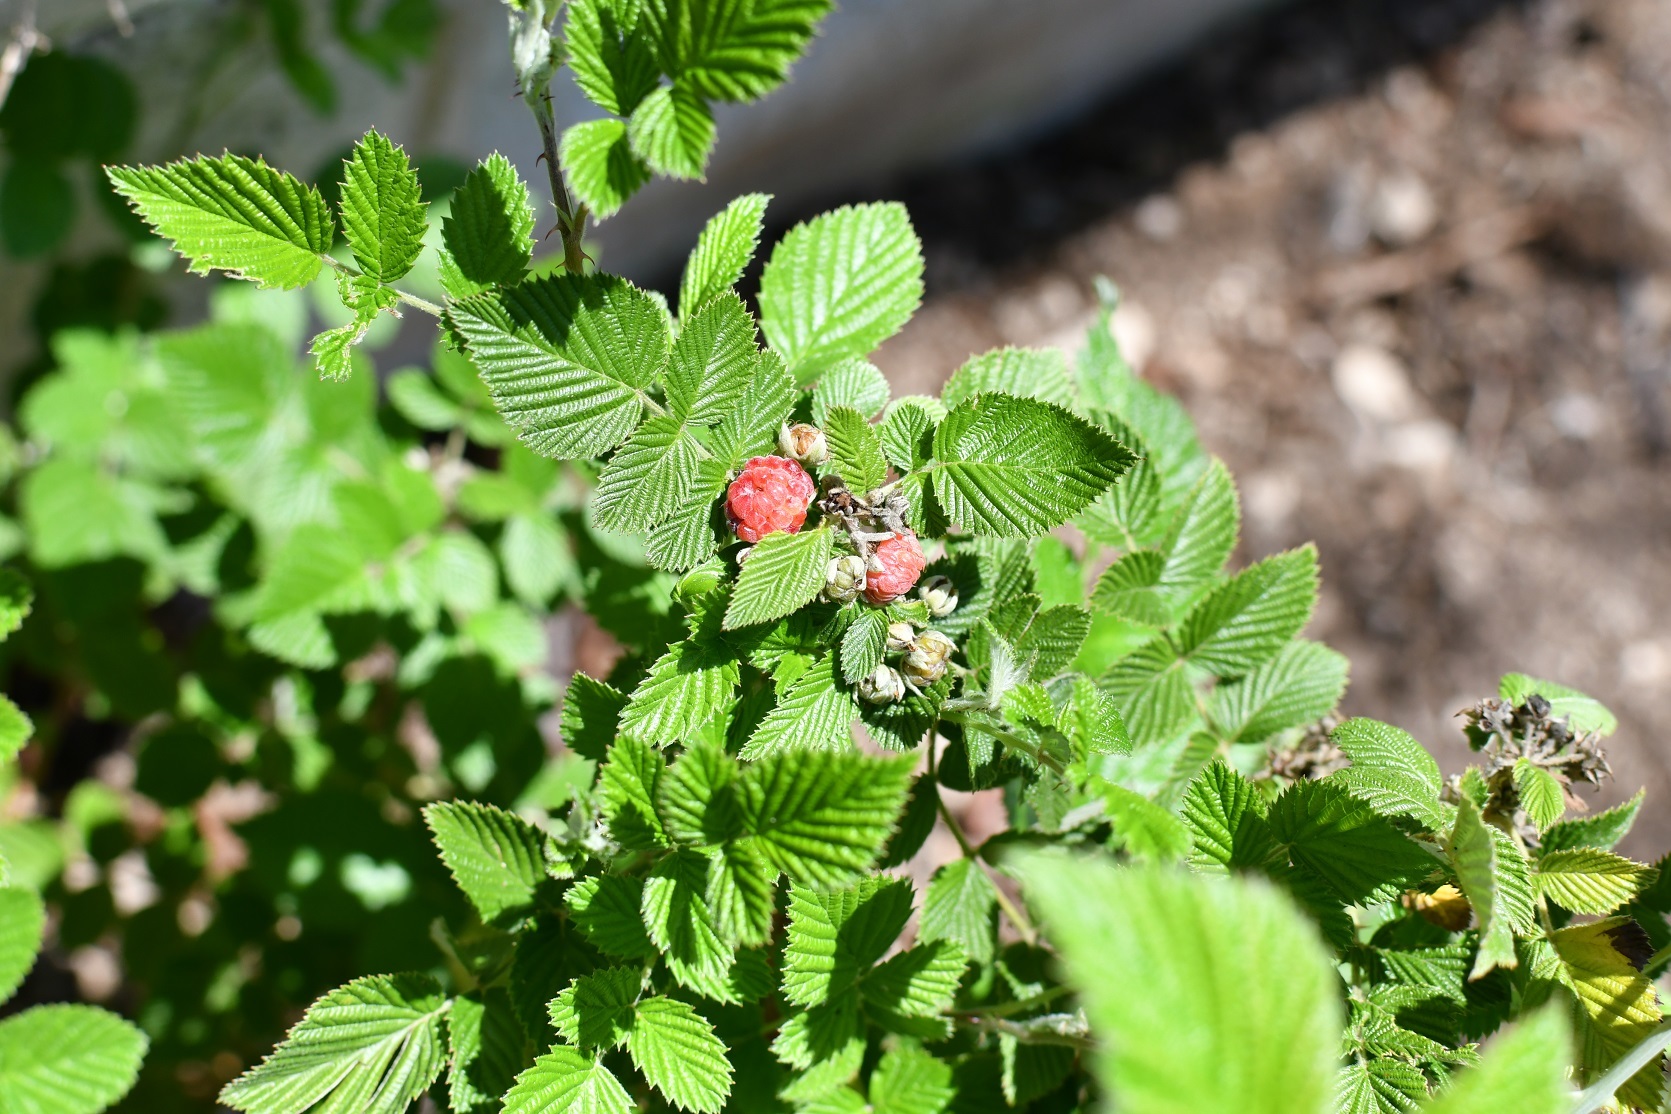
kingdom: Plantae
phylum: Tracheophyta
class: Magnoliopsida
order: Rosales
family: Rosaceae
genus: Rubus
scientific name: Rubus niveus
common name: Snowpeaks raspberry
